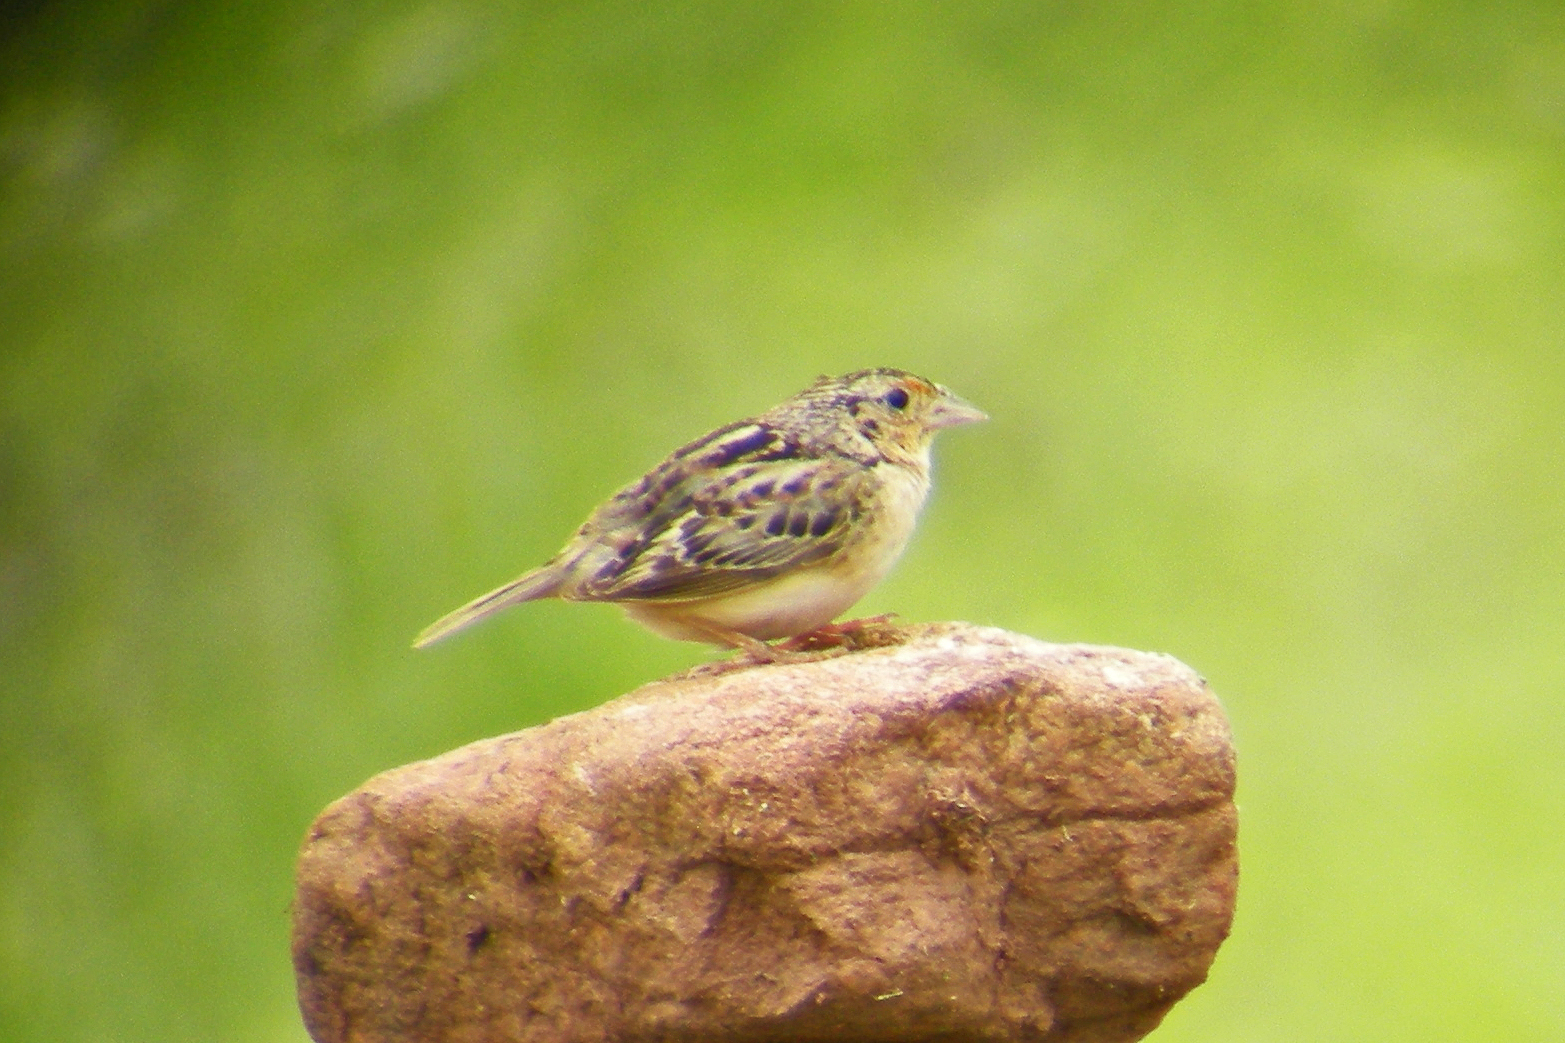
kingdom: Animalia
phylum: Chordata
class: Aves
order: Passeriformes
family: Passerellidae
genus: Ammodramus
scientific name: Ammodramus savannarum
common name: Grasshopper sparrow
